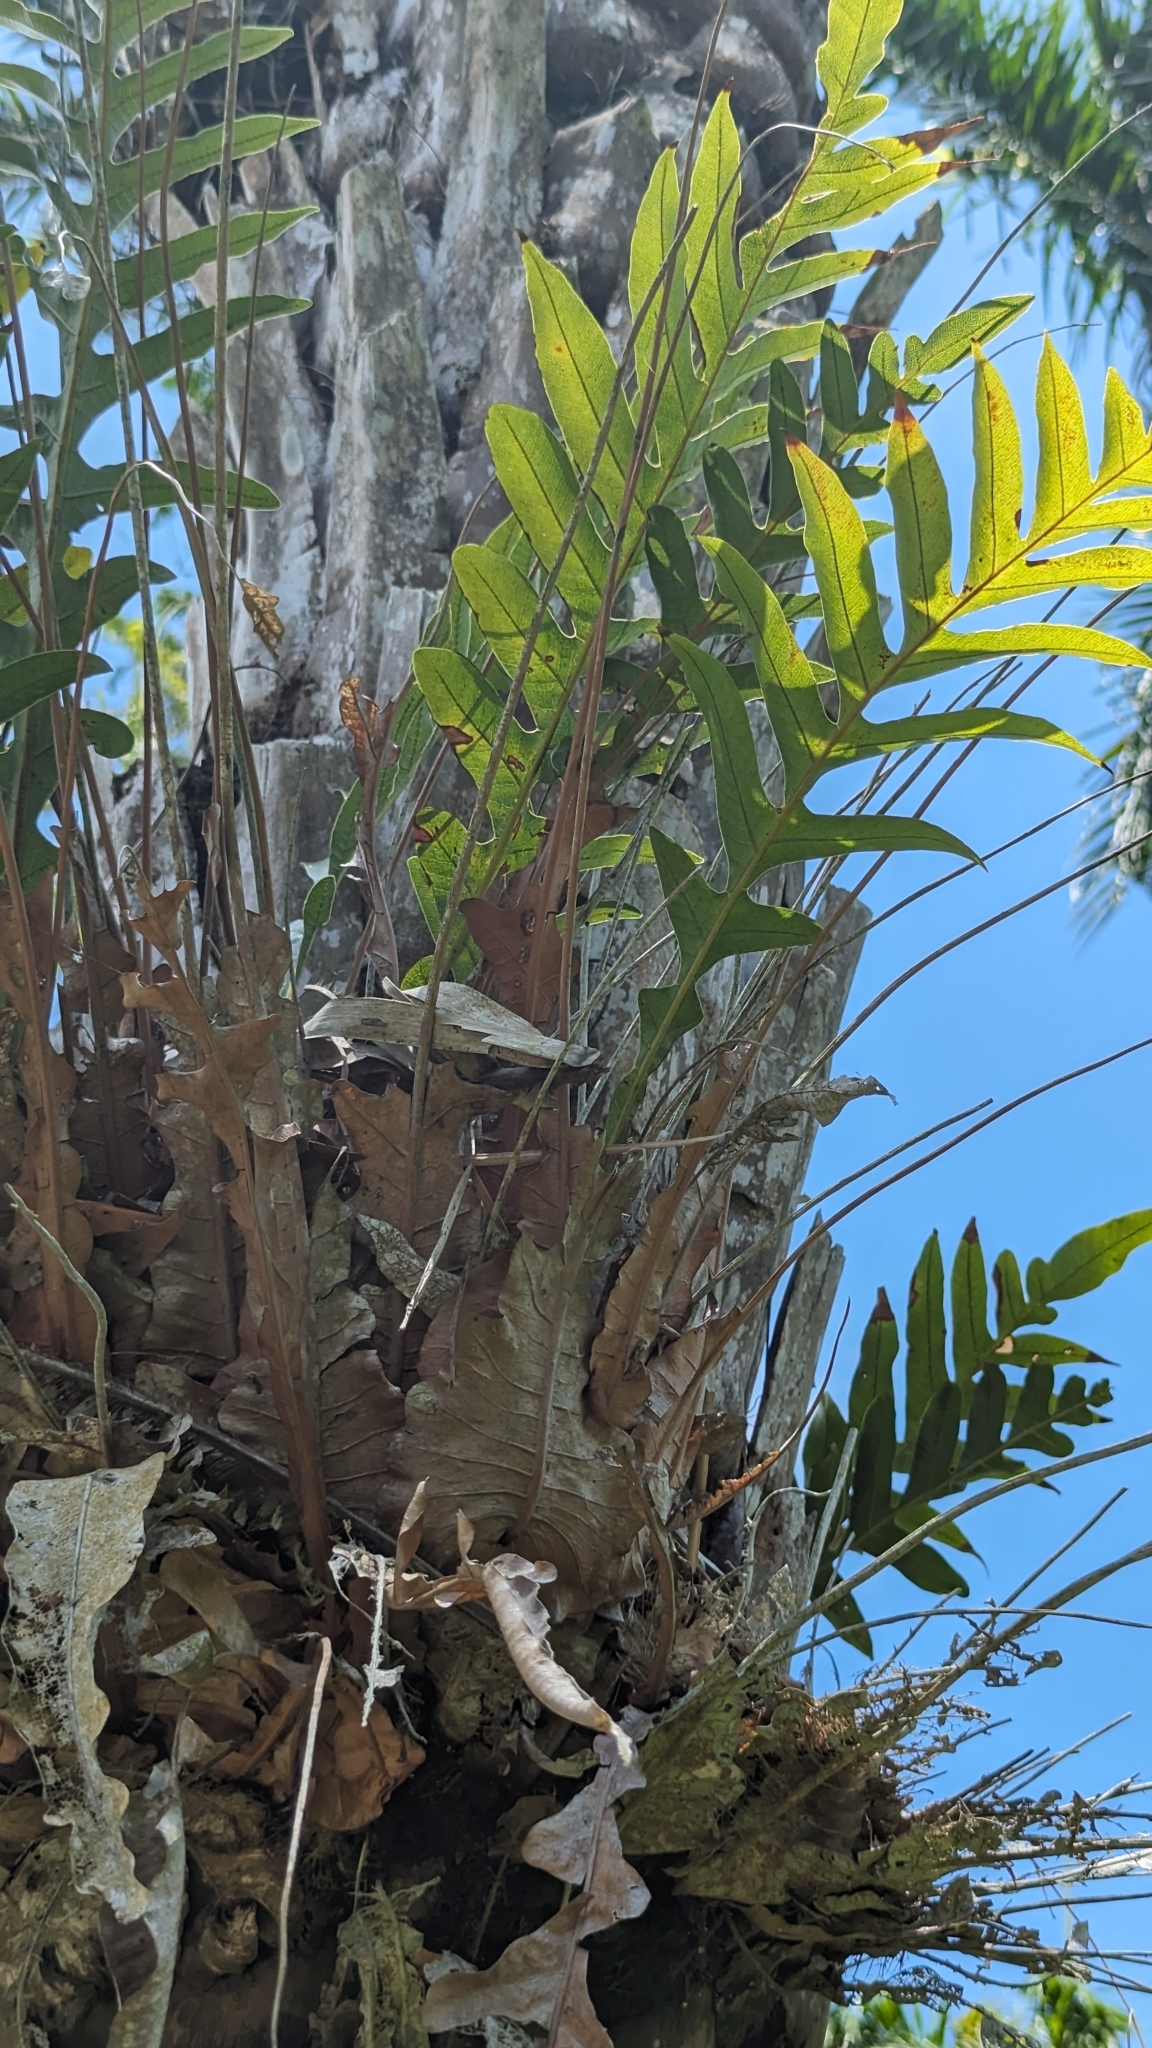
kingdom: Plantae
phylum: Tracheophyta
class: Polypodiopsida
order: Polypodiales
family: Polypodiaceae
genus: Drynaria
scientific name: Drynaria coronans
